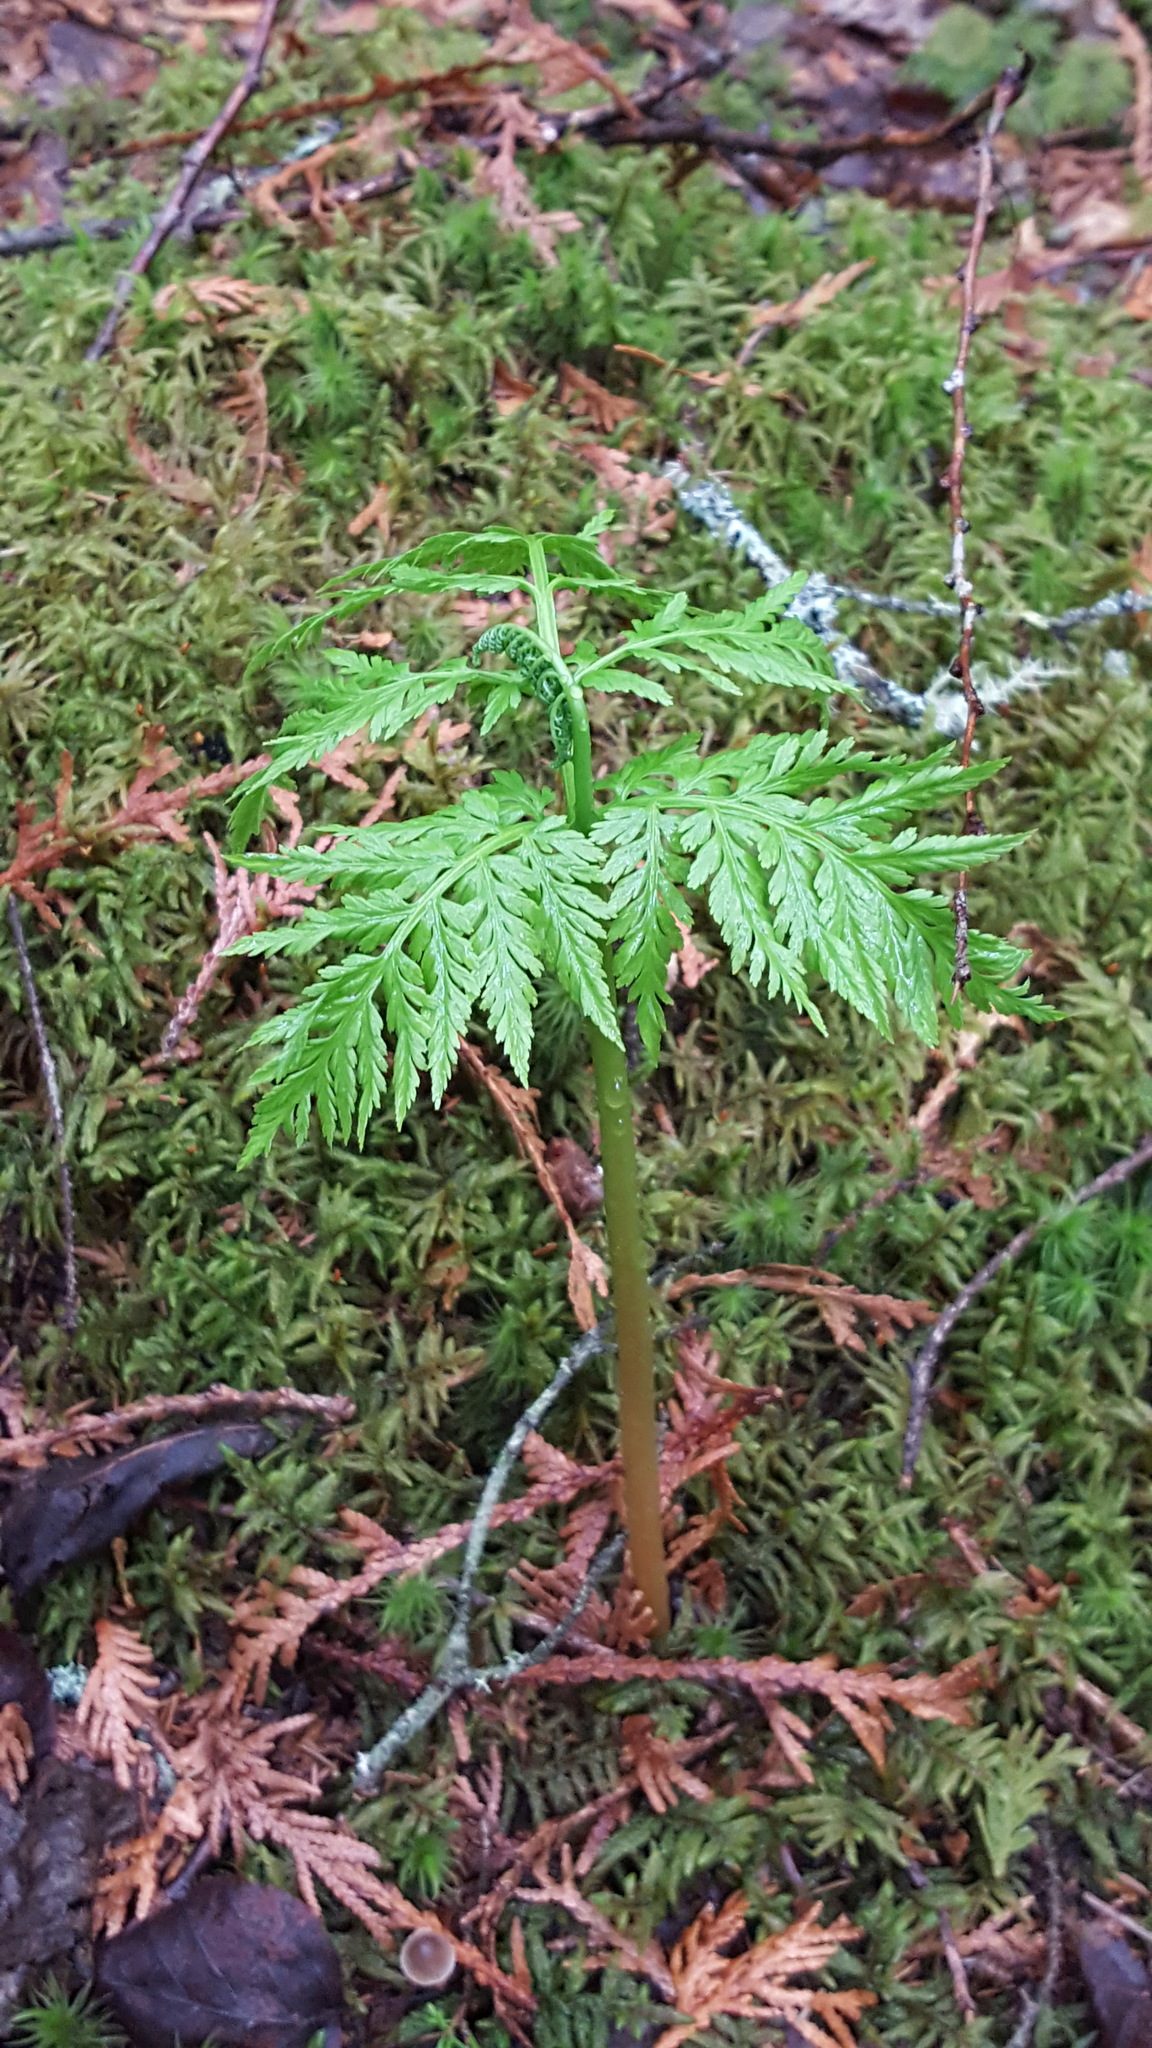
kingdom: Plantae
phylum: Tracheophyta
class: Polypodiopsida
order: Ophioglossales
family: Ophioglossaceae
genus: Botrypus
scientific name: Botrypus virginianus
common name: Common grapefern
